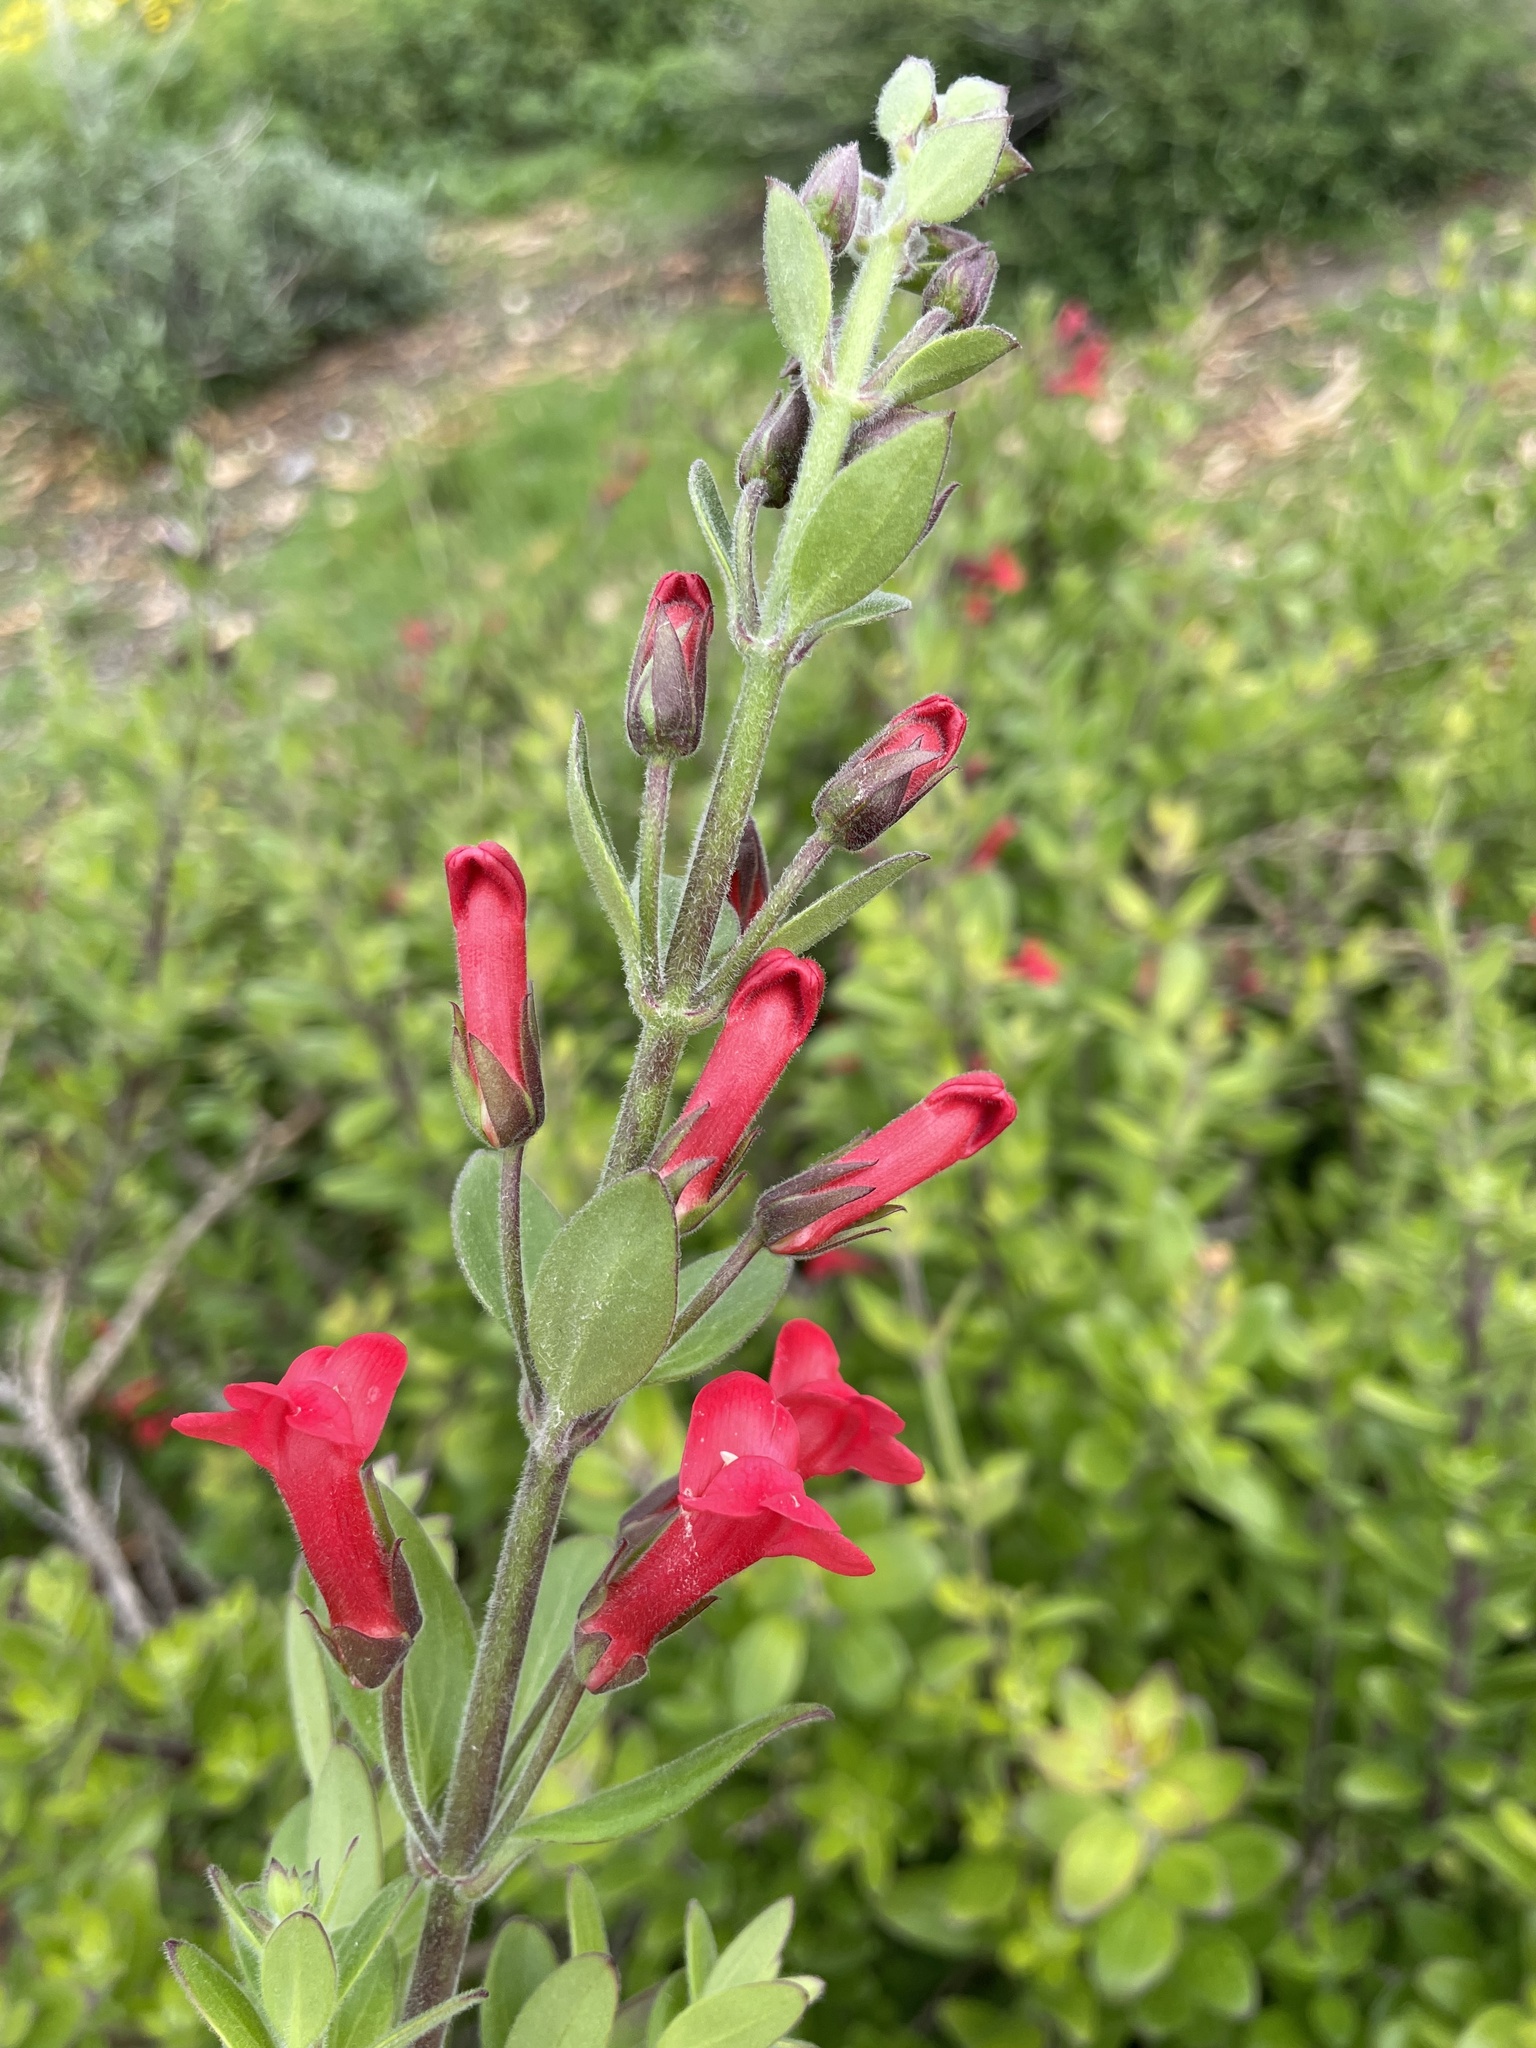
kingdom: Plantae
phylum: Tracheophyta
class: Magnoliopsida
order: Lamiales
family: Plantaginaceae
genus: Gambelia
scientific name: Gambelia speciosa
